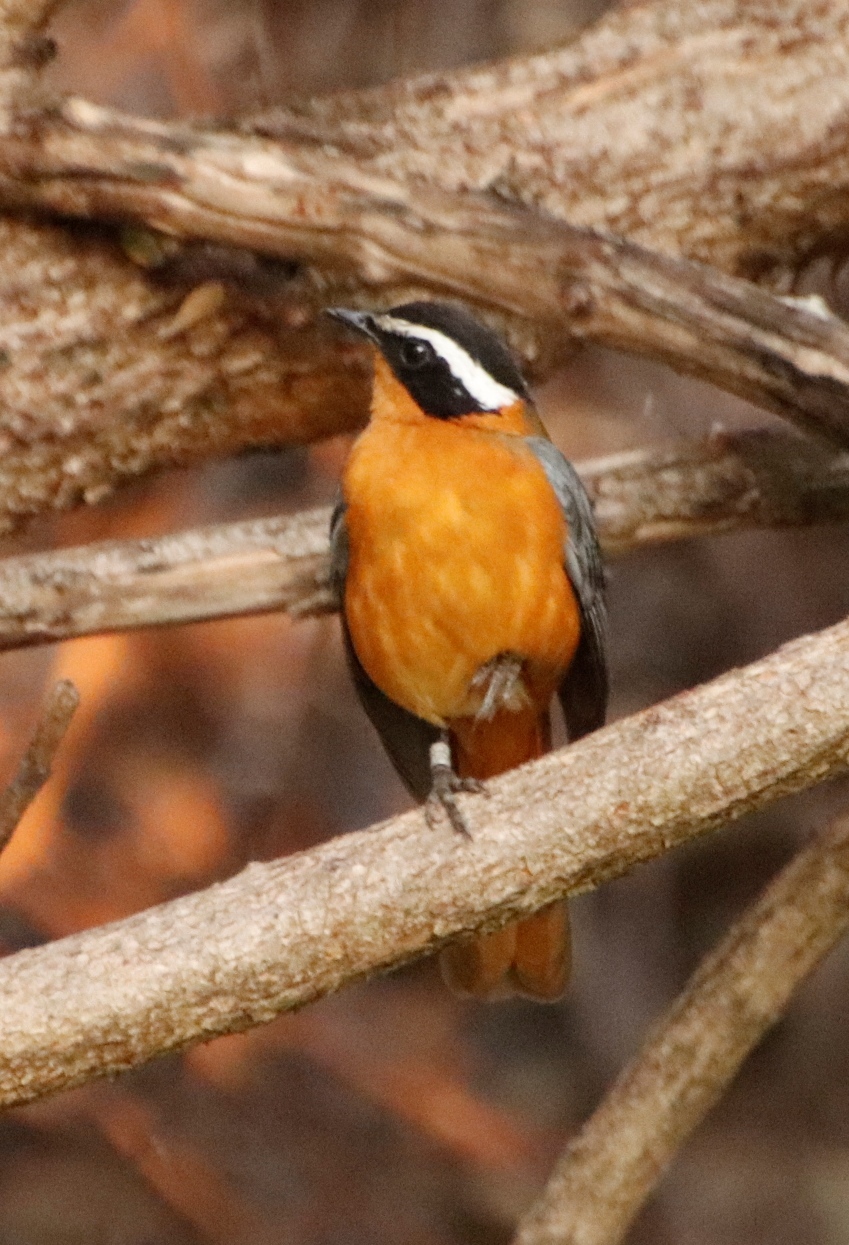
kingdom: Animalia
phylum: Chordata
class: Aves
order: Passeriformes
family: Muscicapidae
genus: Cossypha
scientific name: Cossypha heuglini
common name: White-browed robin-chat
